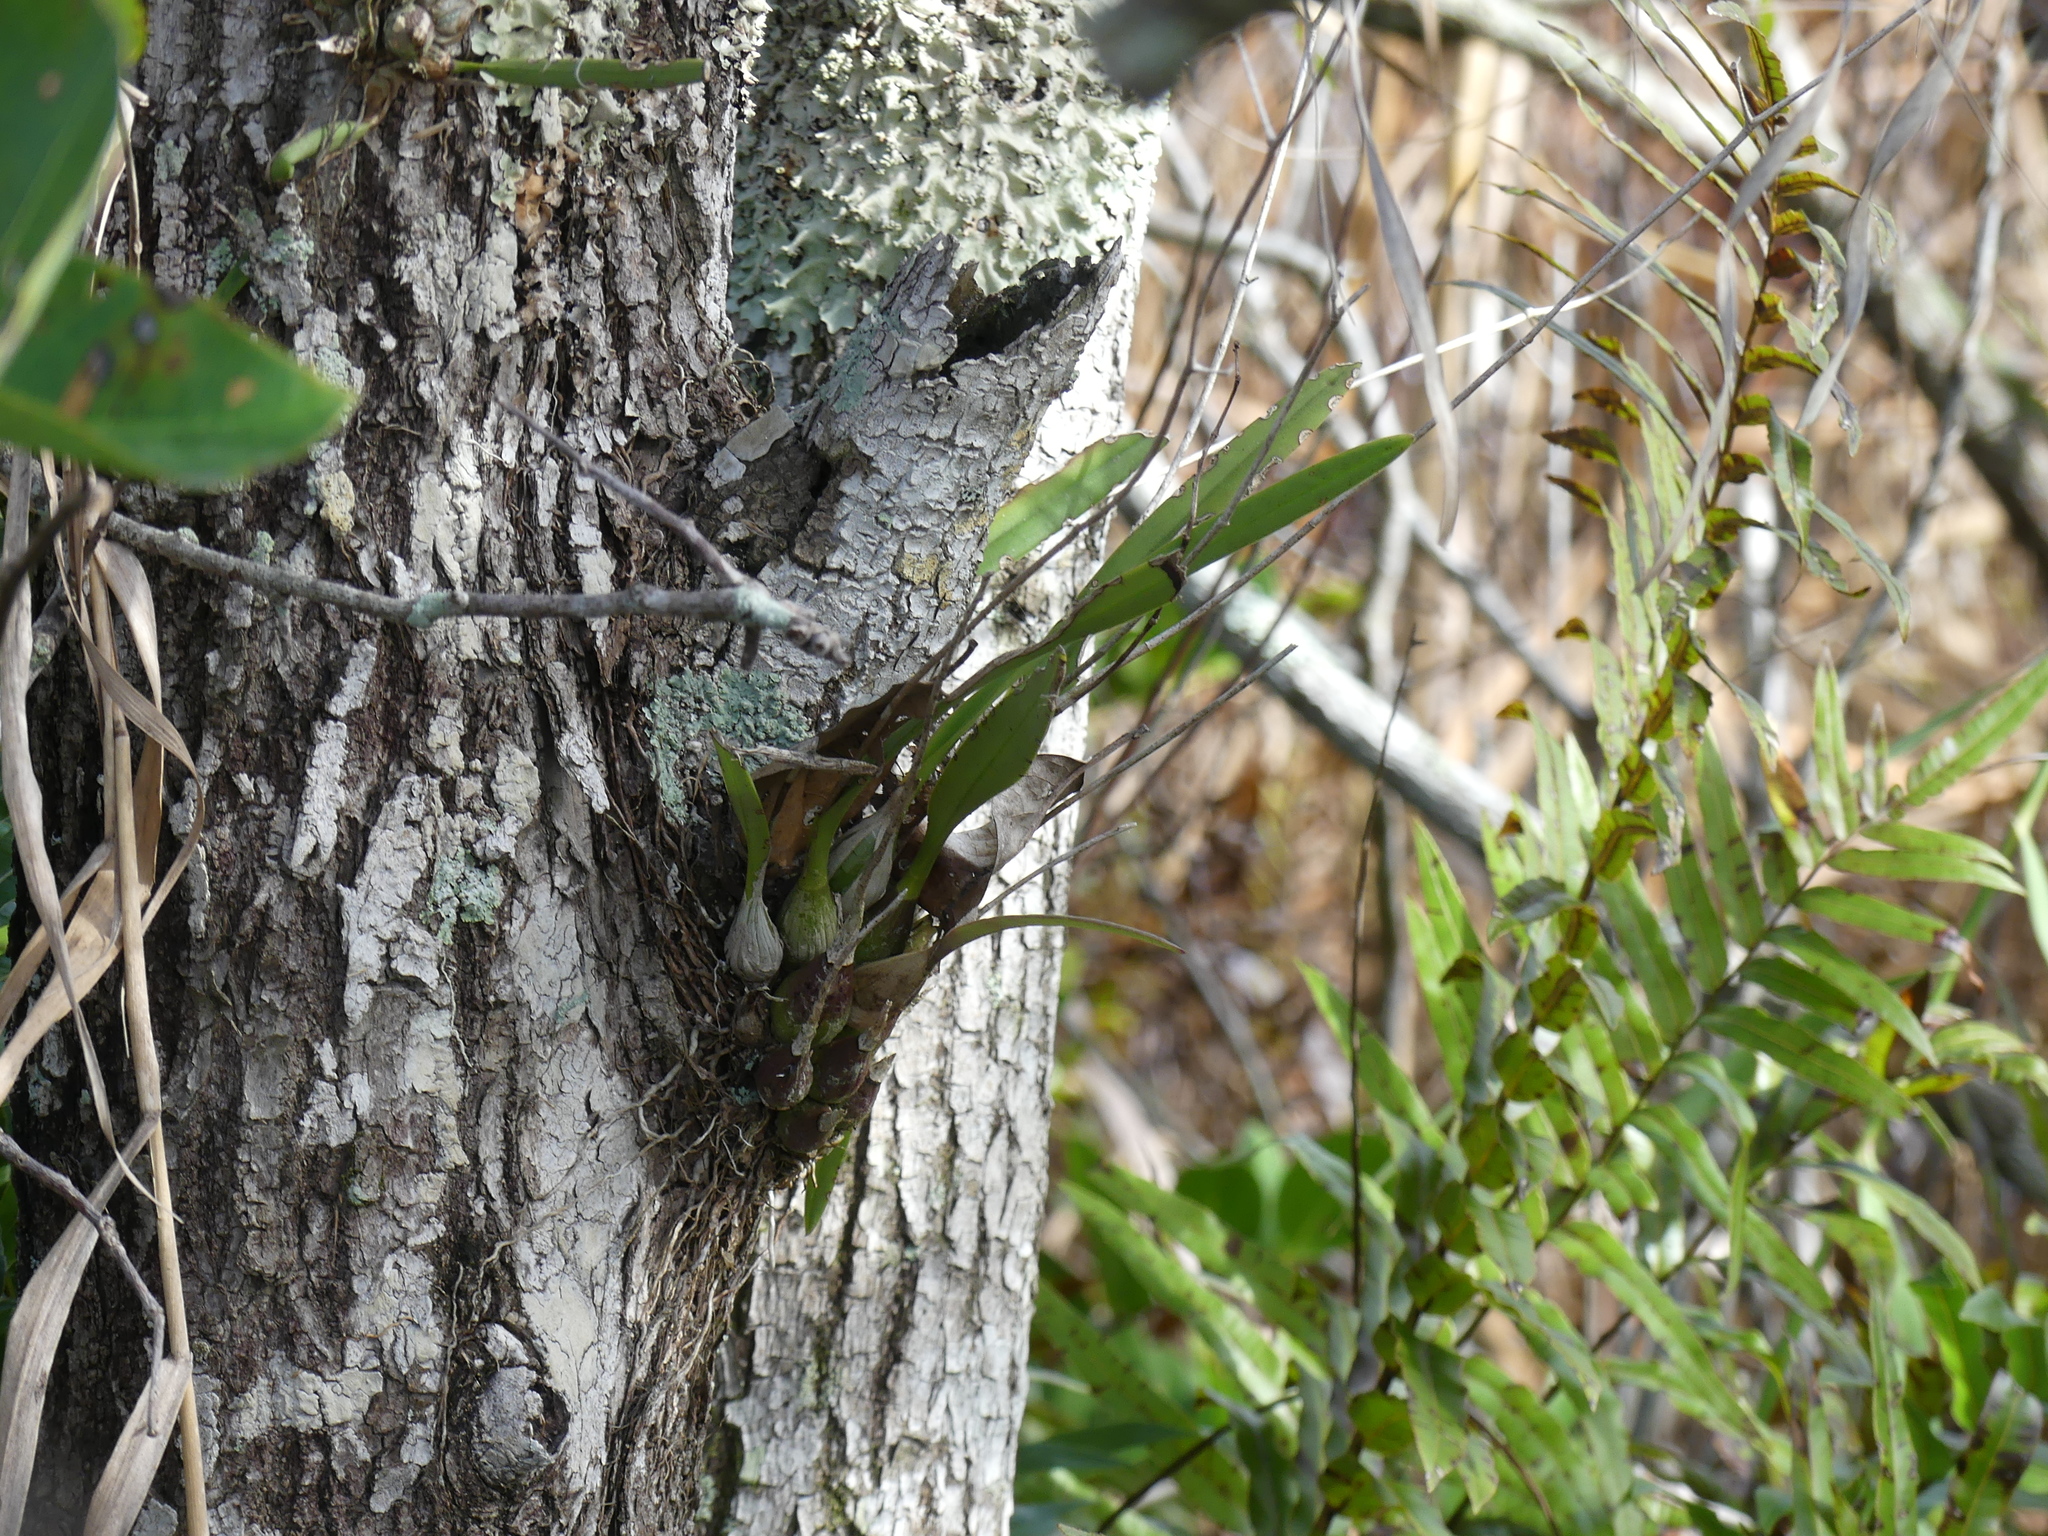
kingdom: Plantae
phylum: Tracheophyta
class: Liliopsida
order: Asparagales
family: Orchidaceae
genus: Encyclia
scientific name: Encyclia tampensis
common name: Florida butterfly orchid
